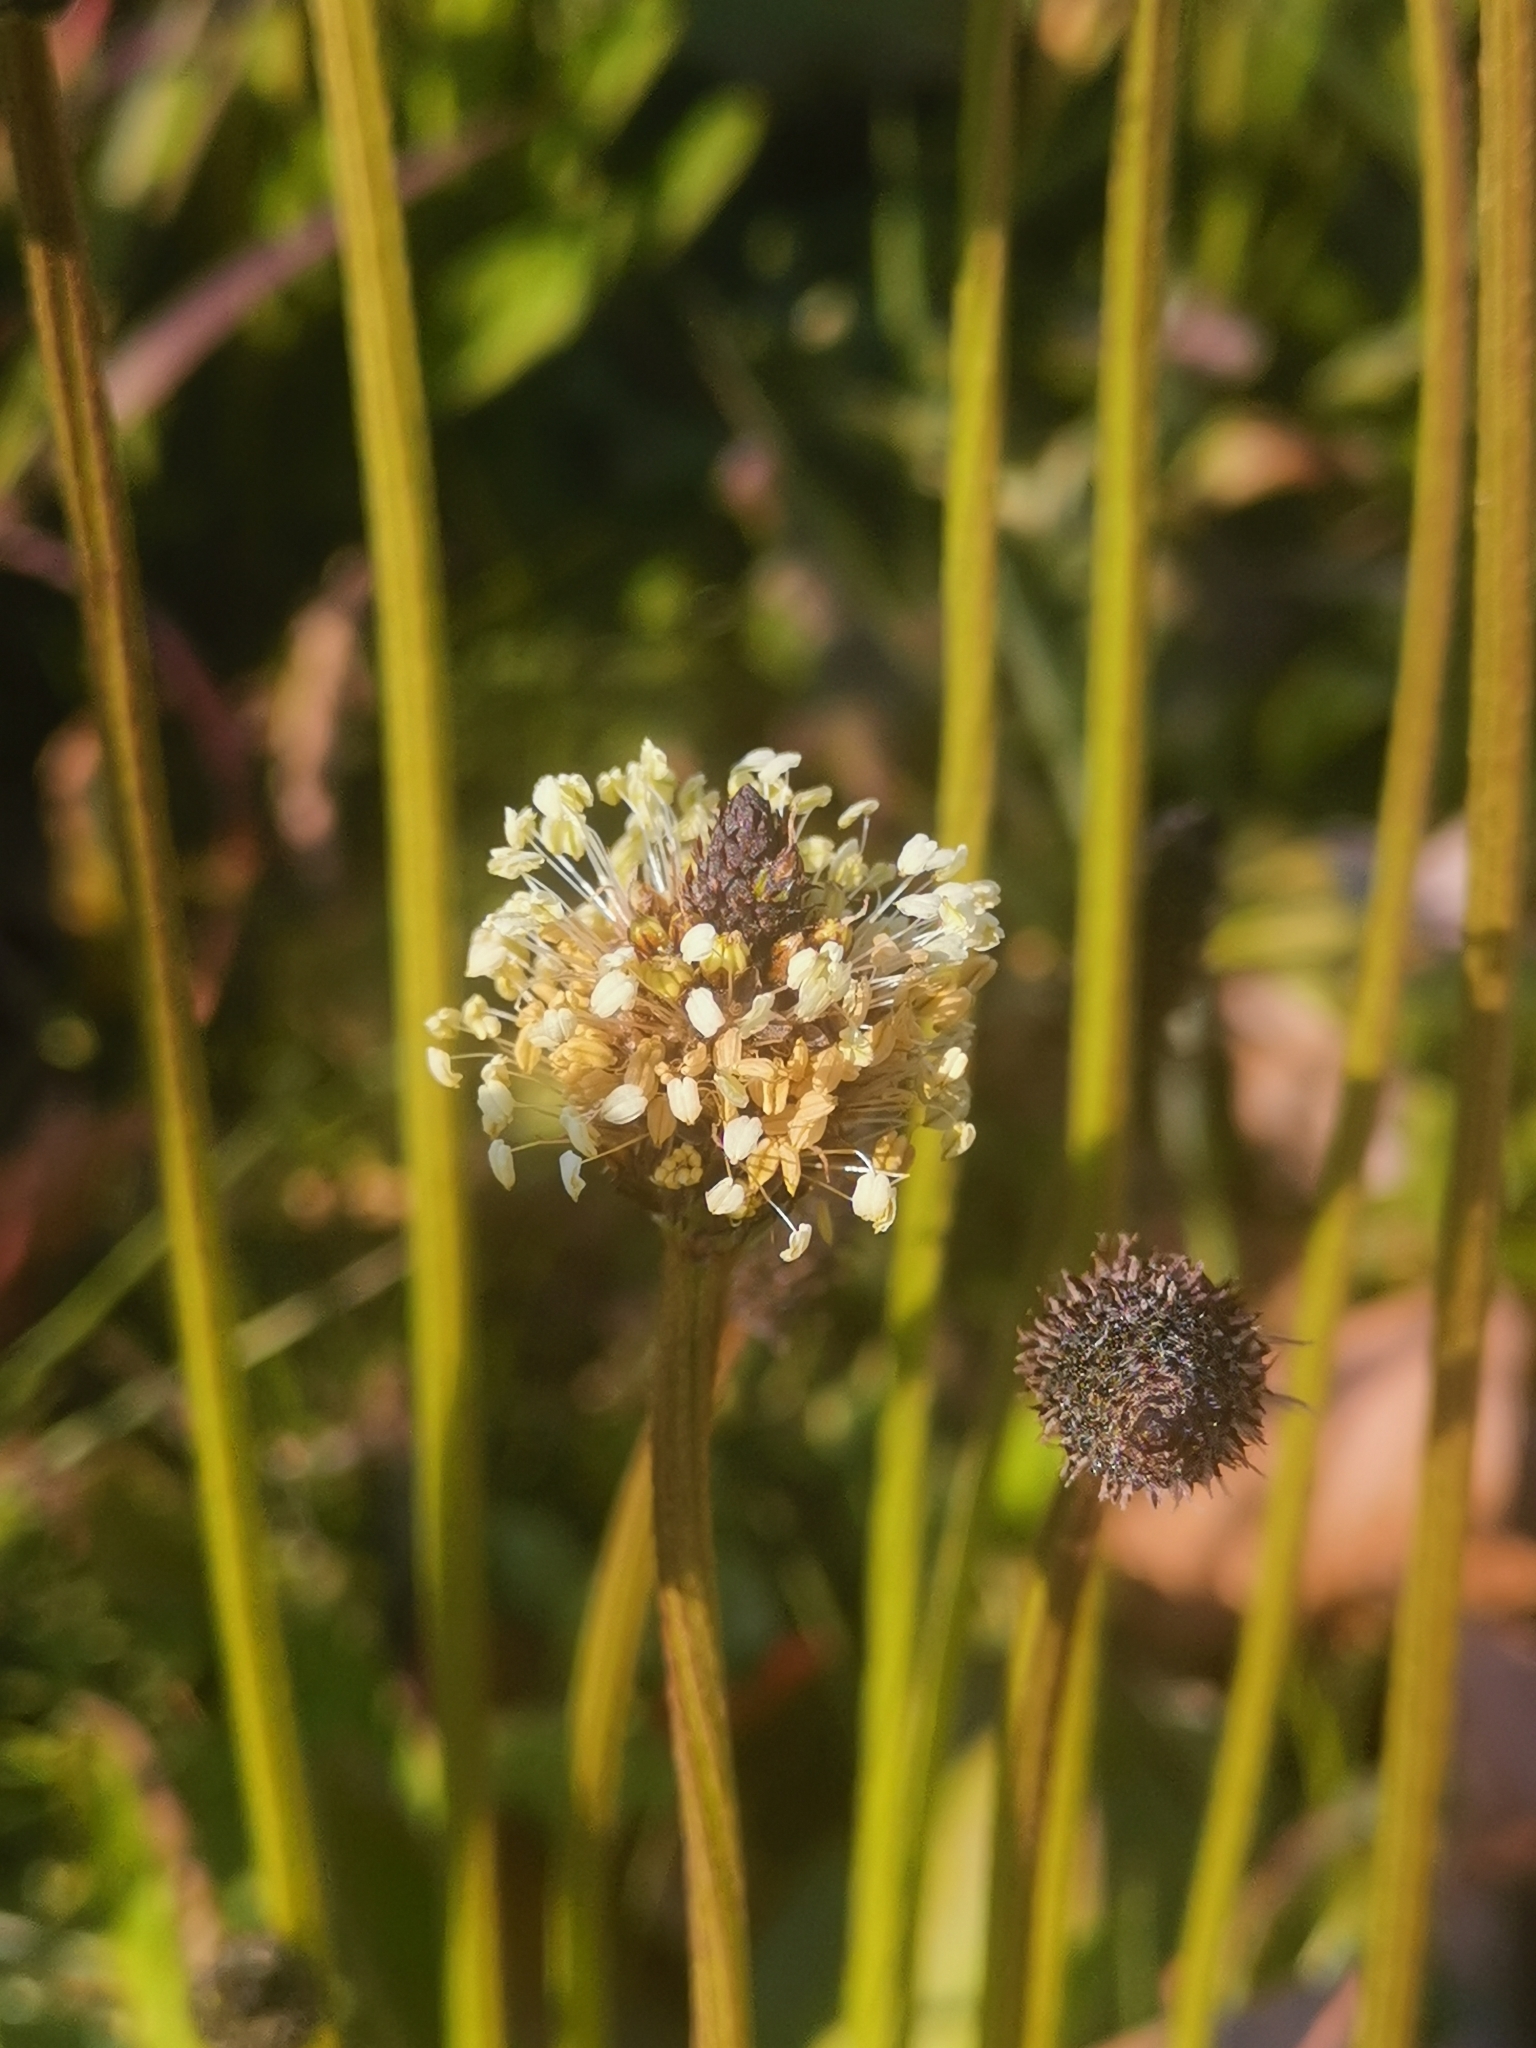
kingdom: Plantae
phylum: Tracheophyta
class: Magnoliopsida
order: Lamiales
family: Plantaginaceae
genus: Plantago
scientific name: Plantago lanceolata
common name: Ribwort plantain
